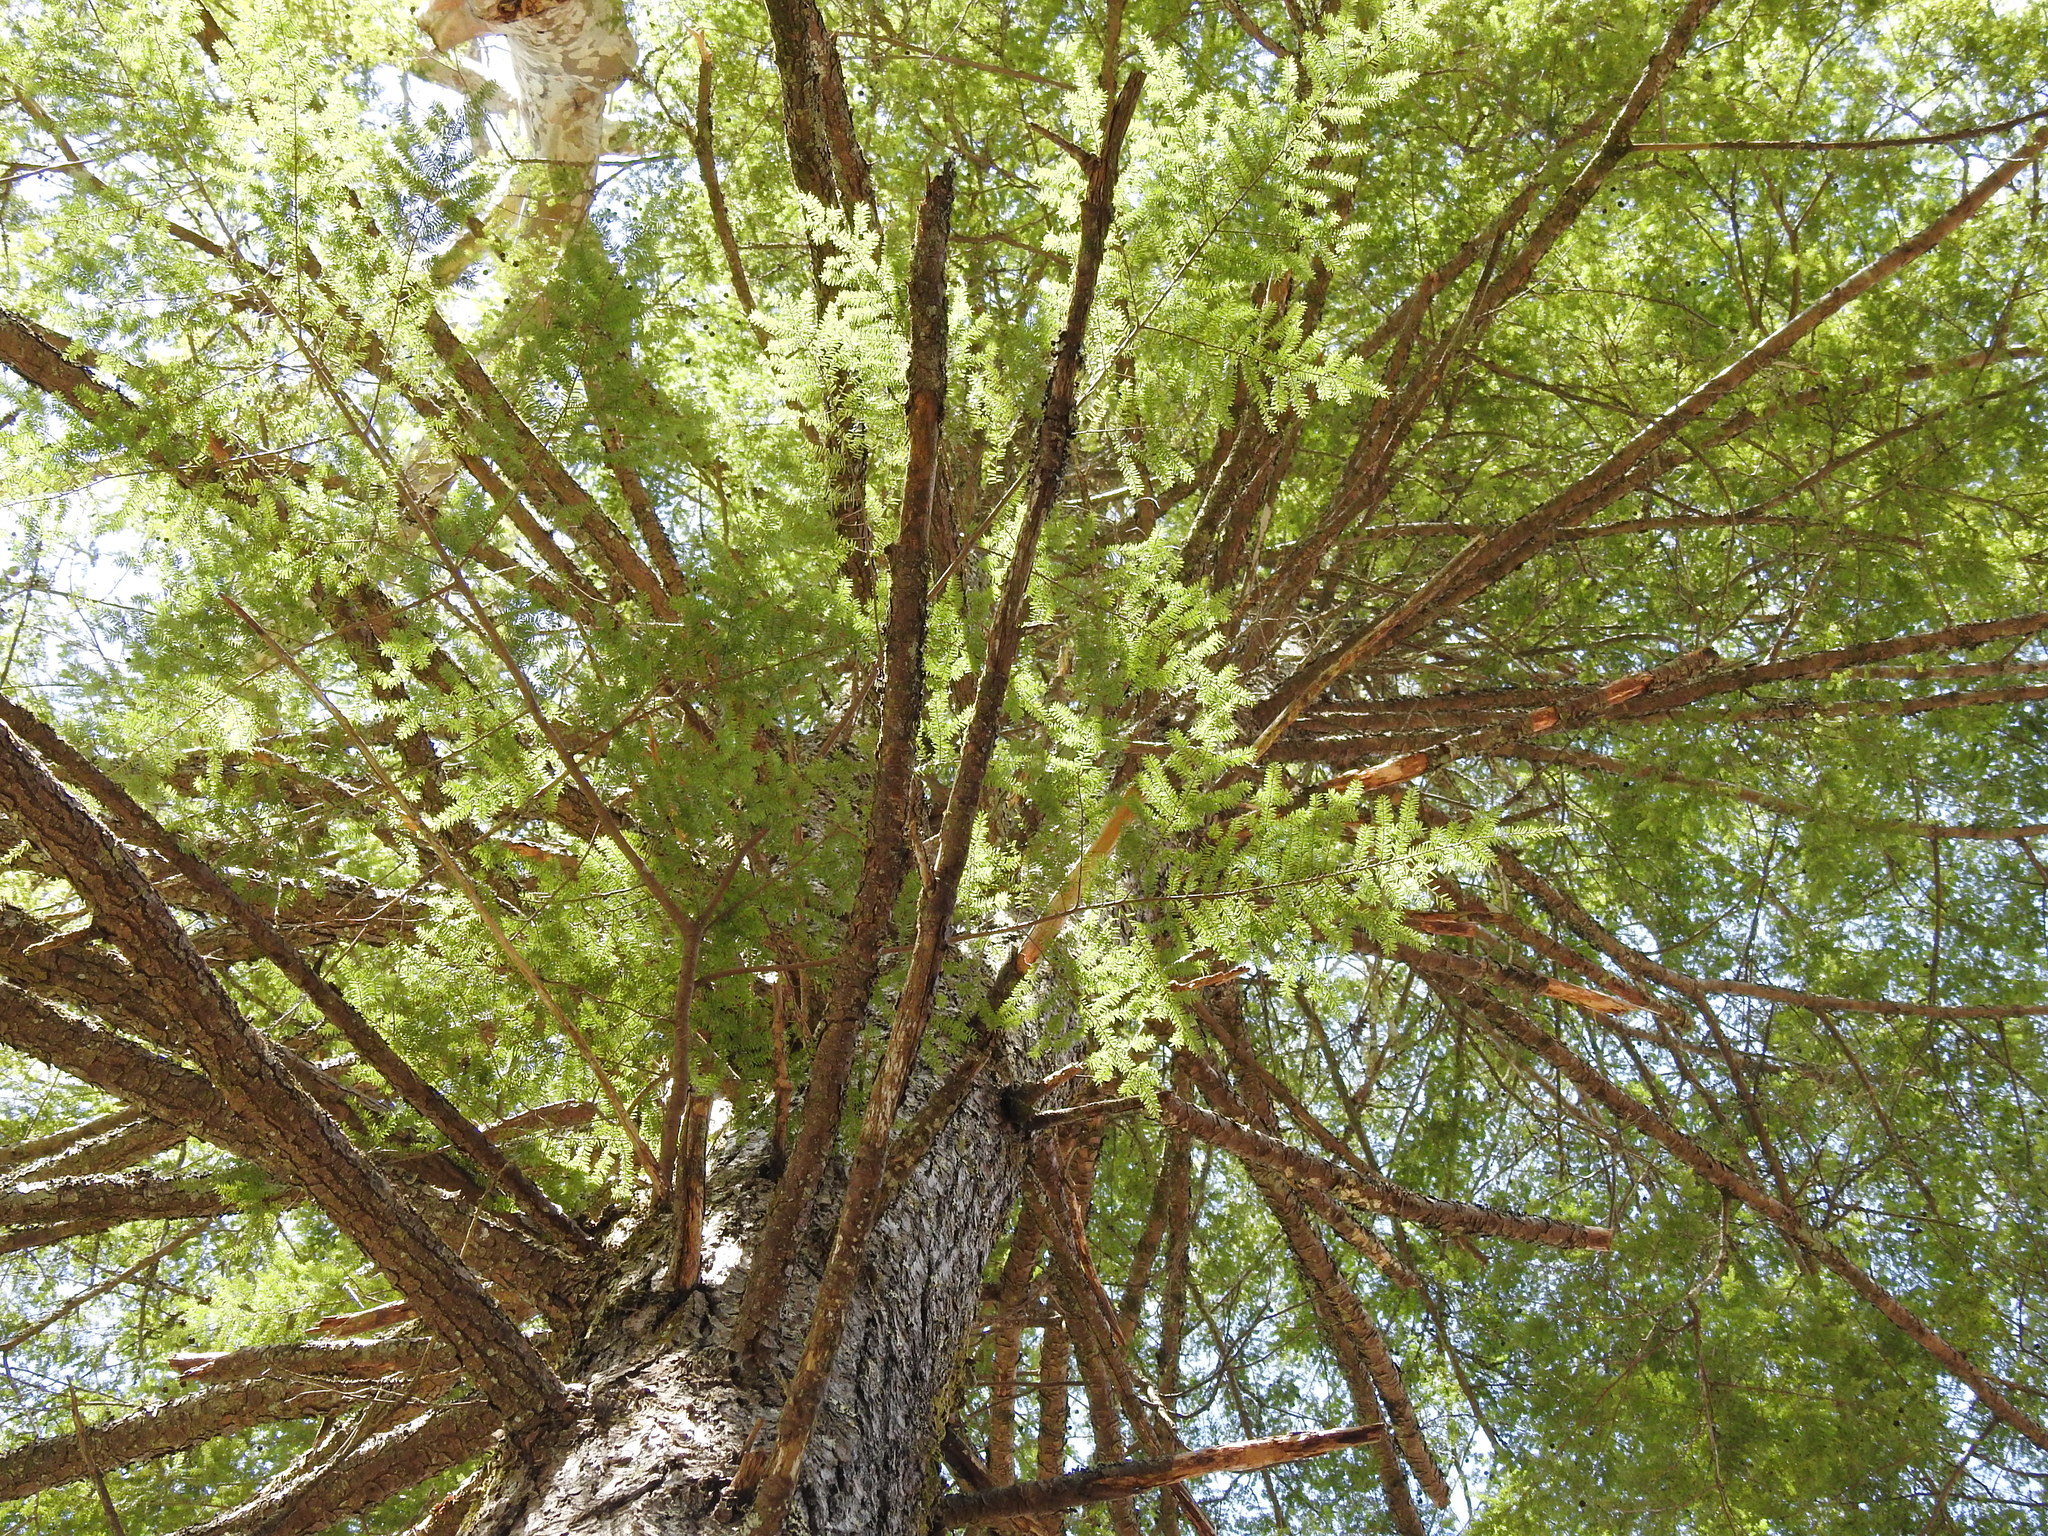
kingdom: Plantae
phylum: Tracheophyta
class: Pinopsida
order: Pinales
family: Pinaceae
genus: Tsuga
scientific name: Tsuga canadensis
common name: Eastern hemlock
